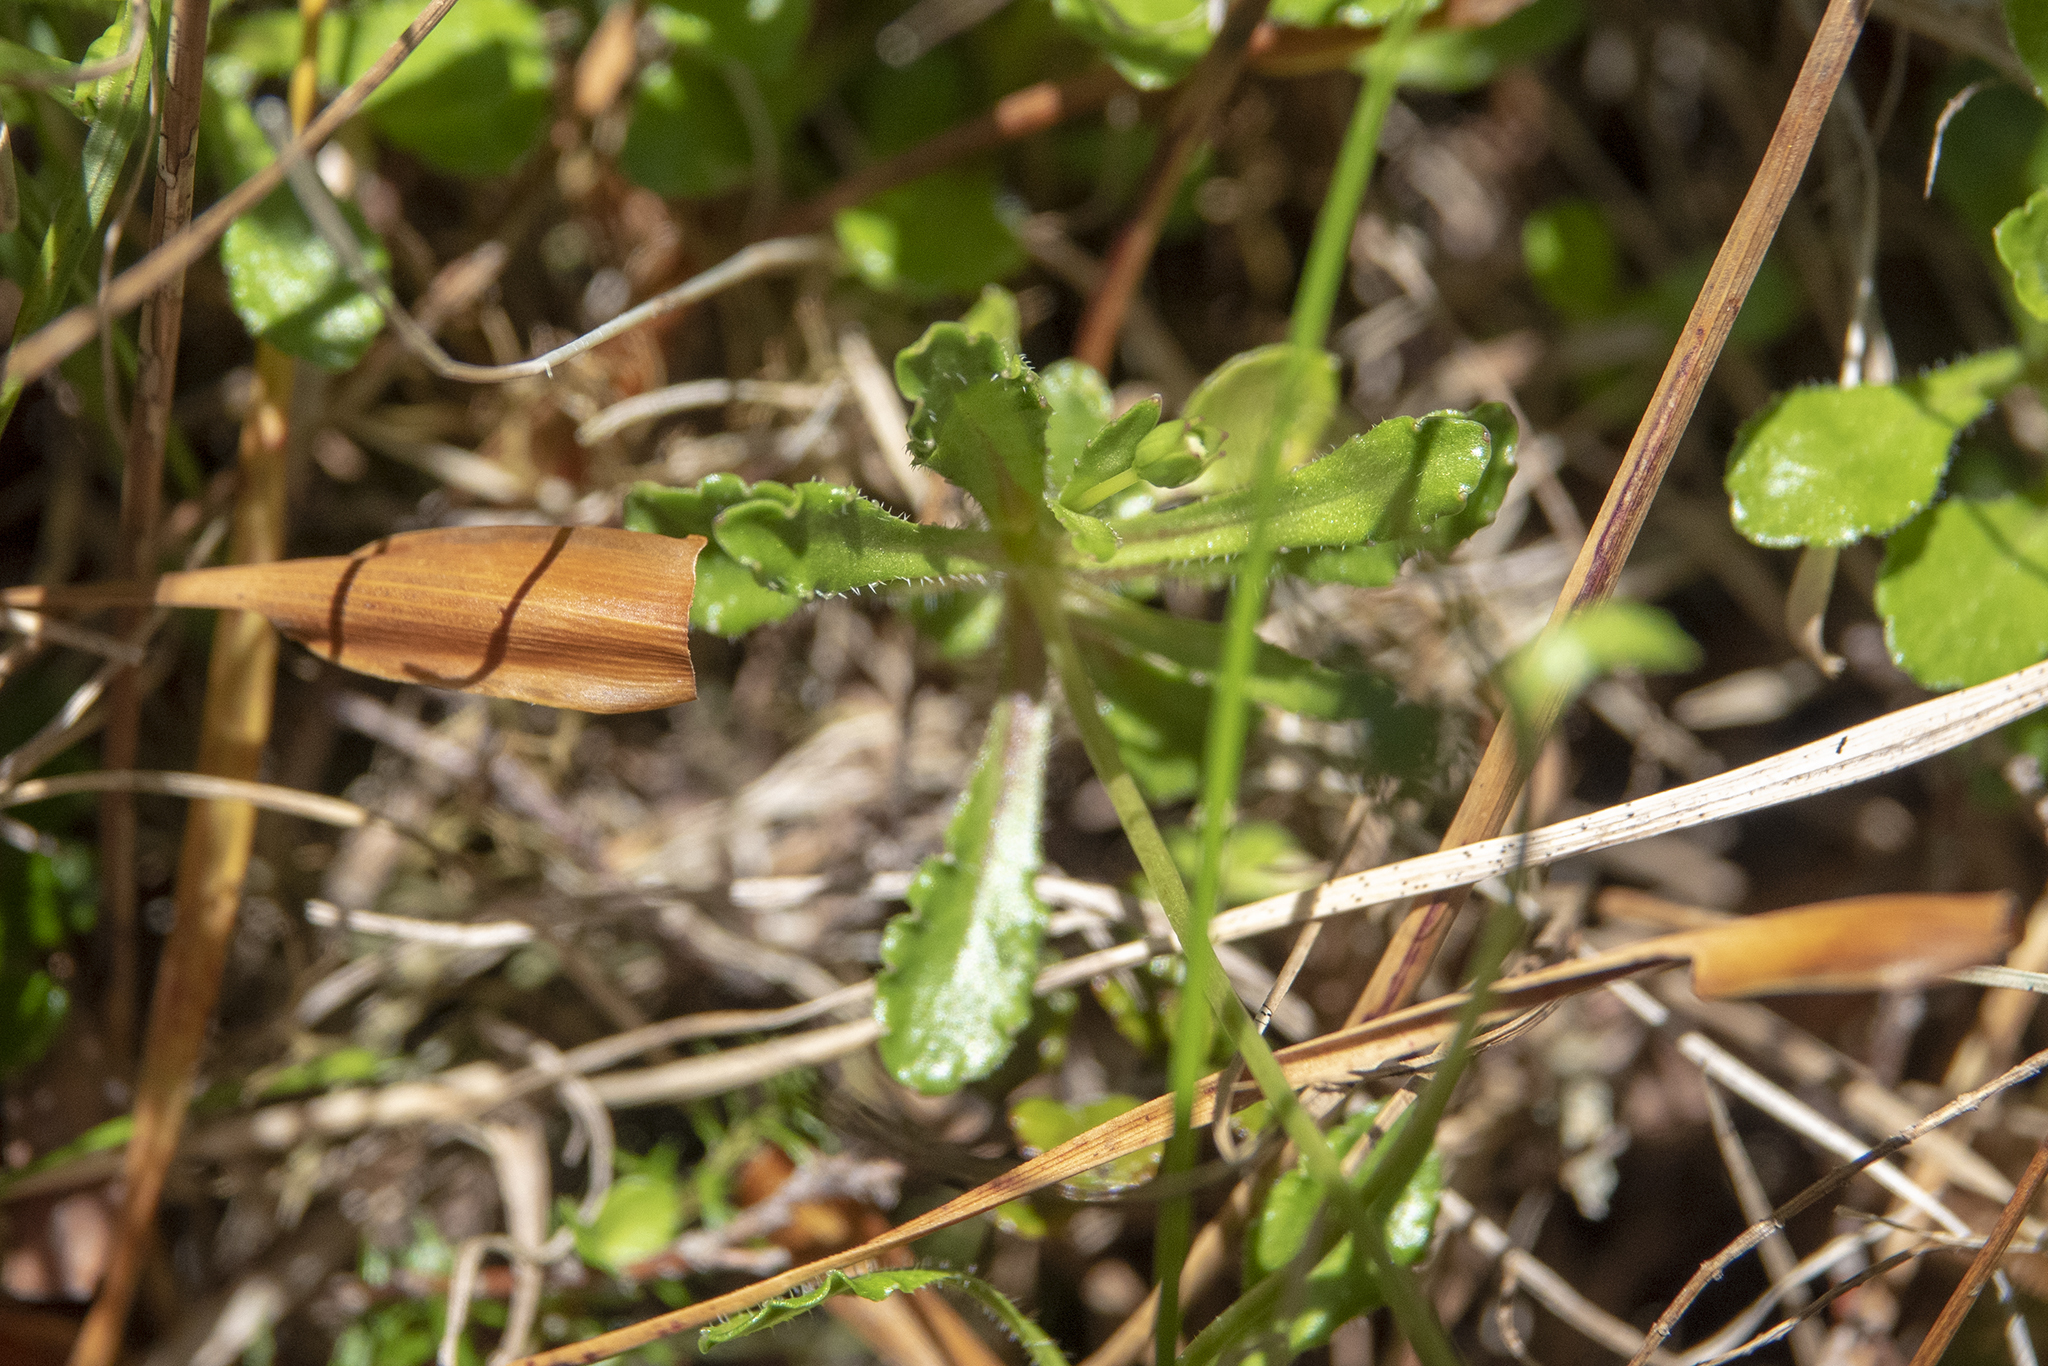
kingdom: Plantae
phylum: Tracheophyta
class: Magnoliopsida
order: Asterales
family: Campanulaceae
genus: Wahlenbergia
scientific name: Wahlenbergia albomarginata
